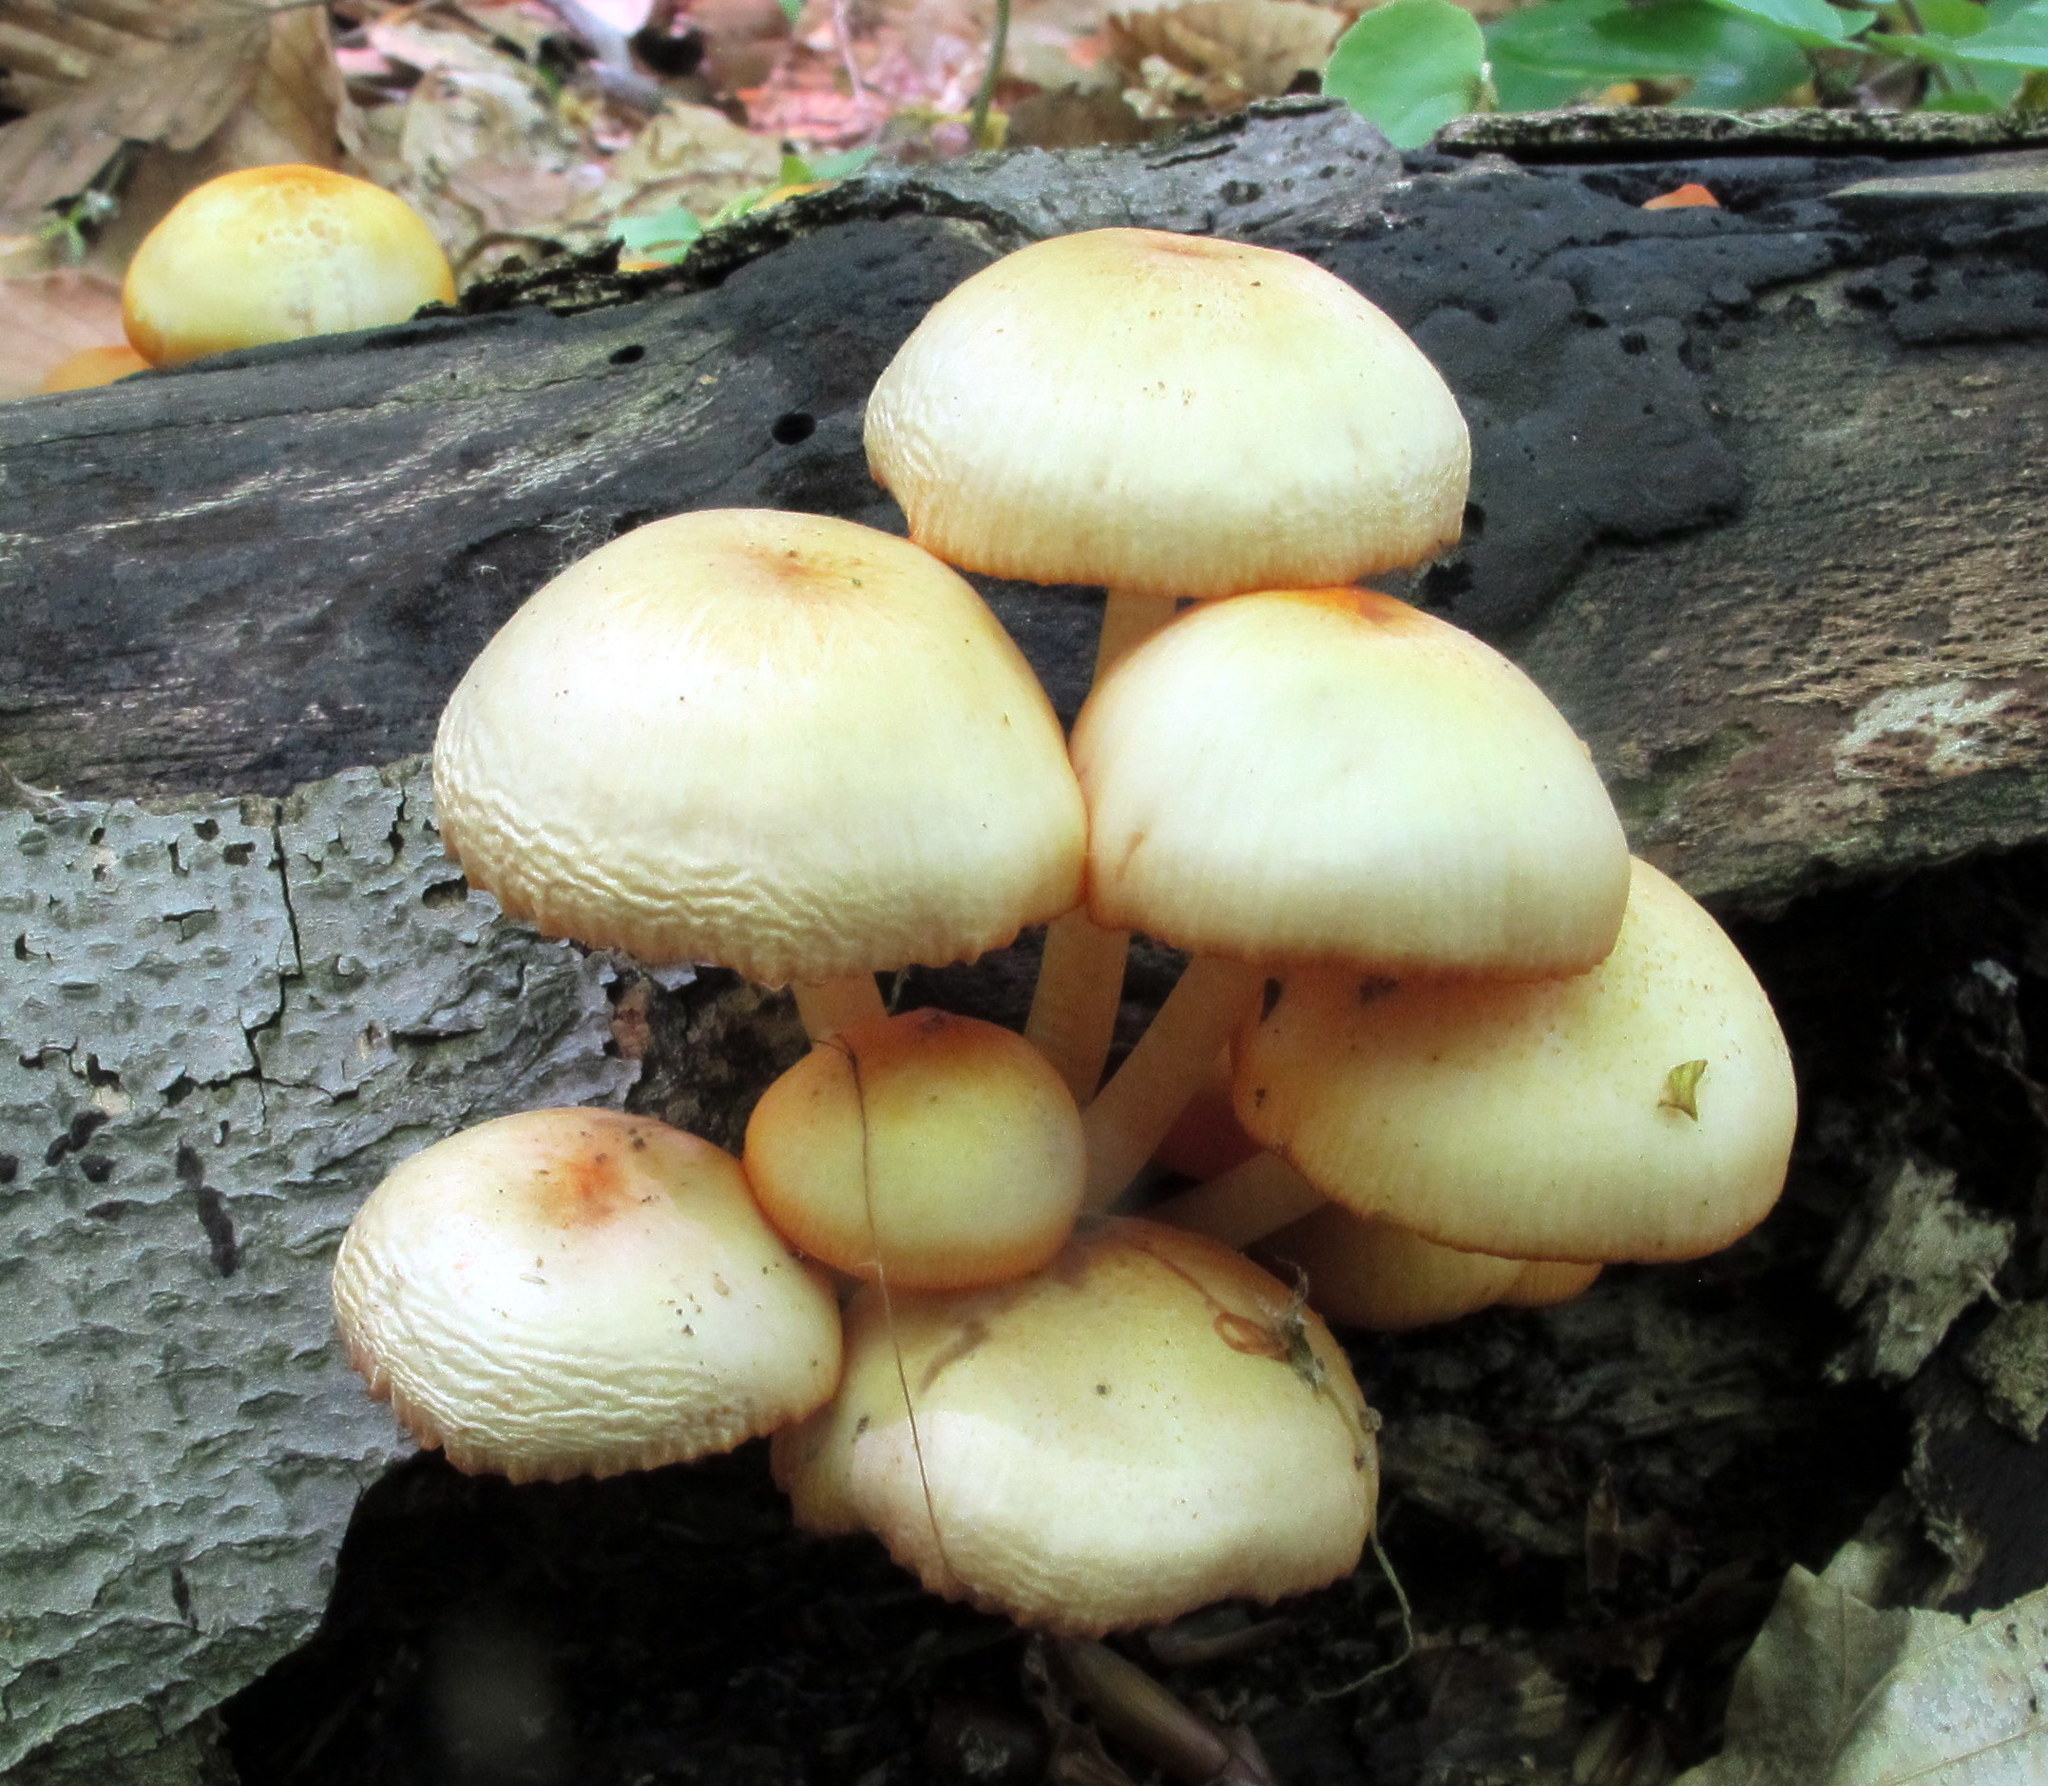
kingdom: Fungi
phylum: Basidiomycota
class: Agaricomycetes
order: Agaricales
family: Mycenaceae
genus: Mycena
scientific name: Mycena leaiana
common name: Orange mycena
